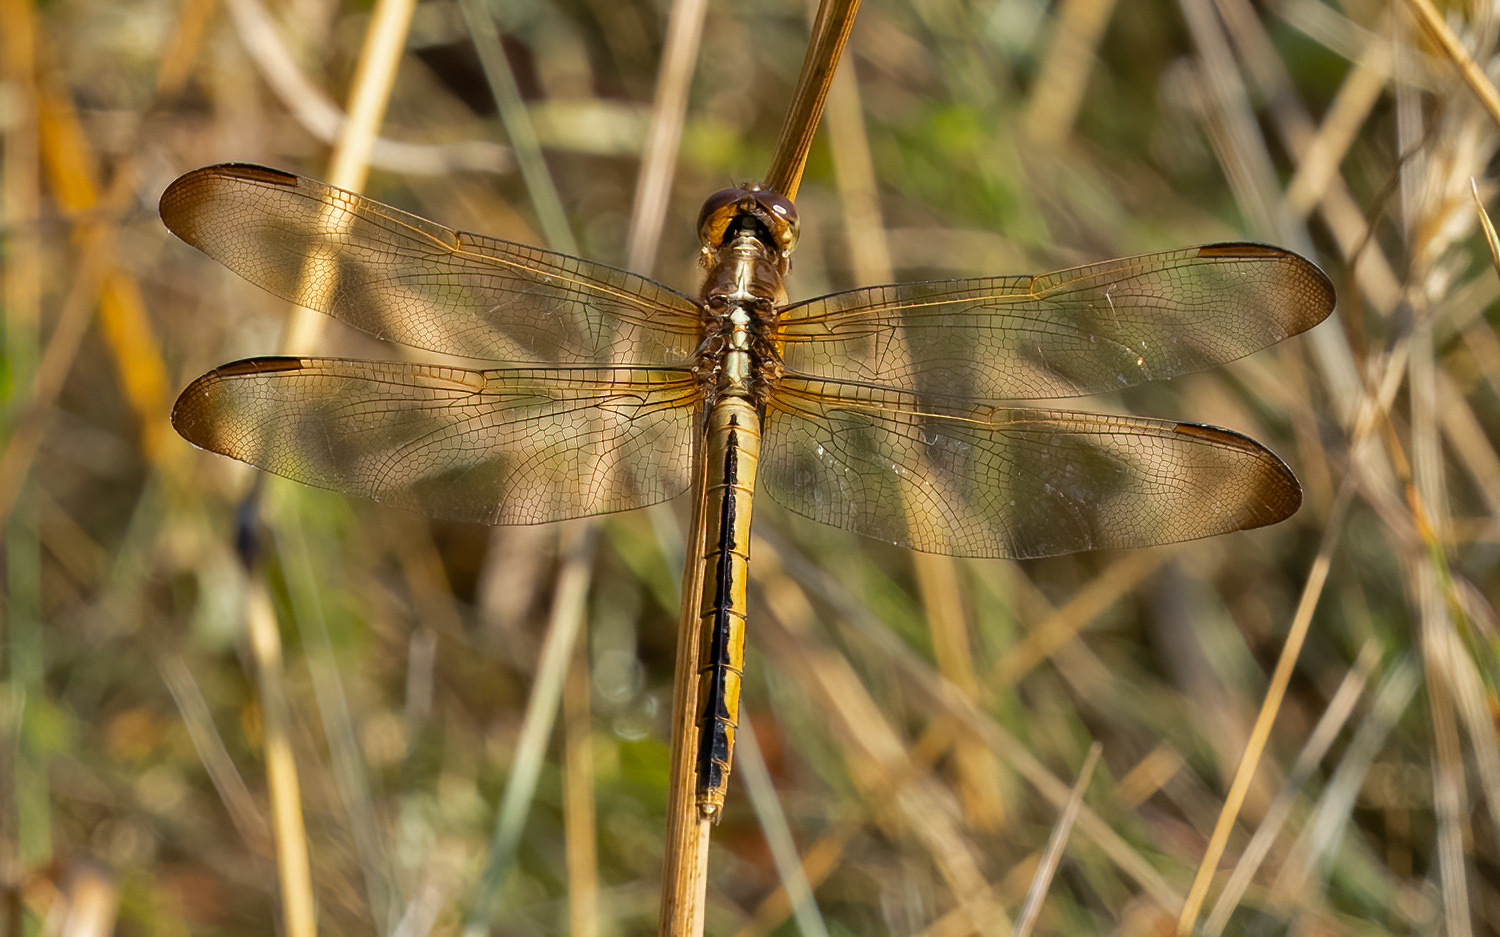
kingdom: Animalia
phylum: Arthropoda
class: Insecta
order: Odonata
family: Libellulidae
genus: Libellula
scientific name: Libellula needhami
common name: Needham's skimmer
